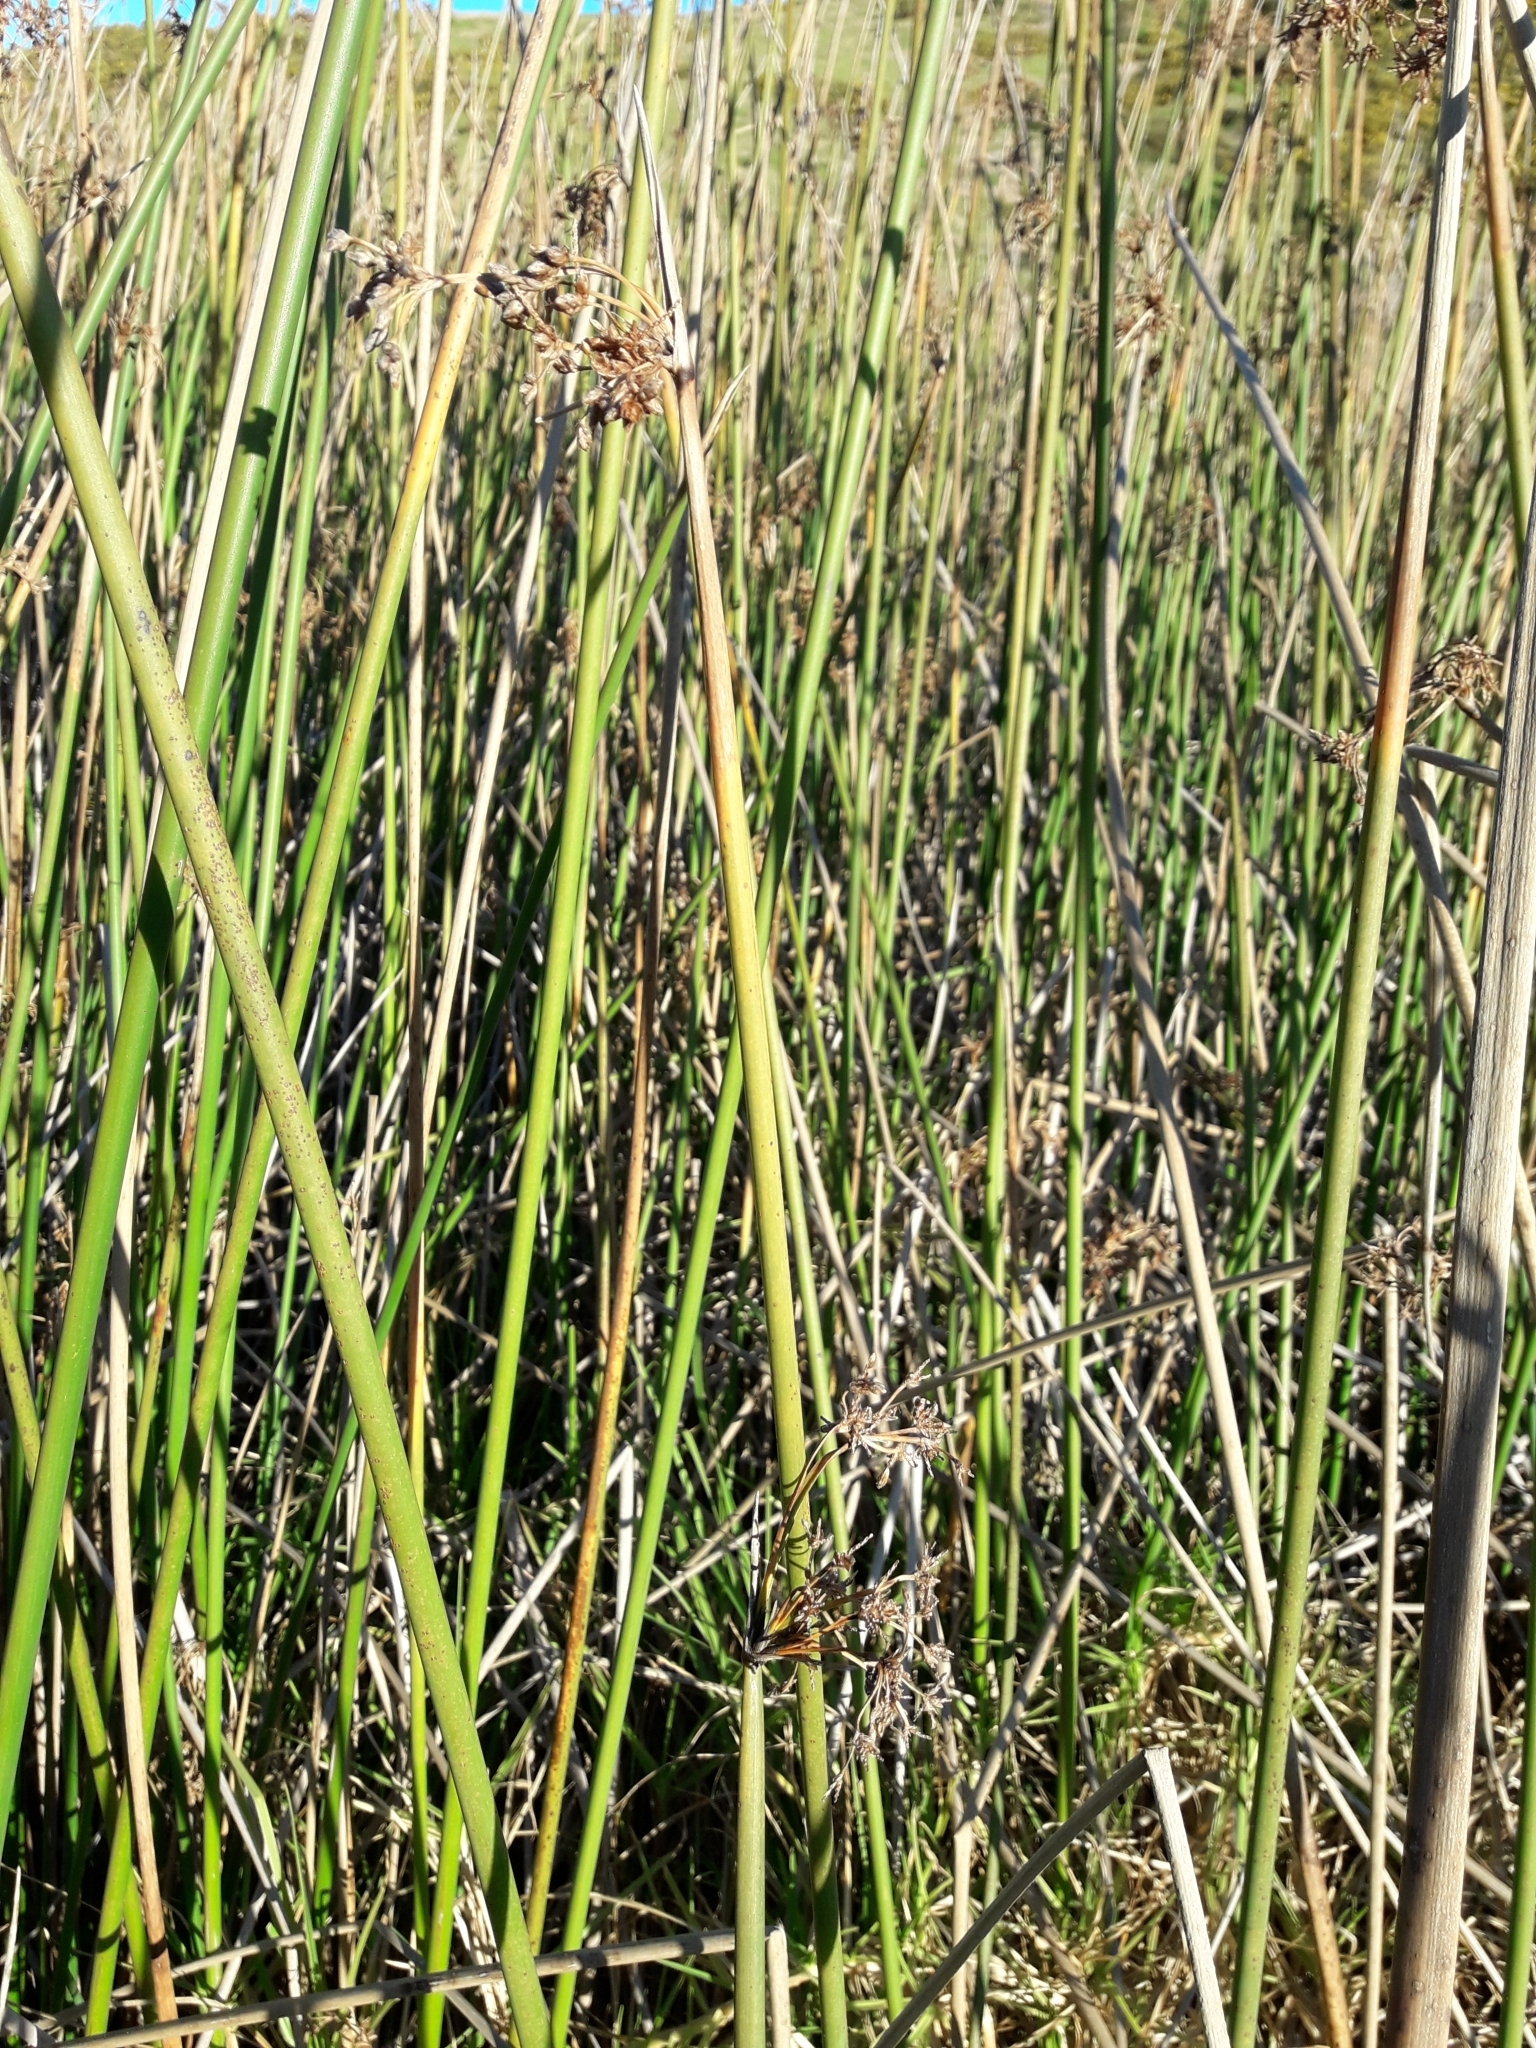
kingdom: Plantae
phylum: Tracheophyta
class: Liliopsida
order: Poales
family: Cyperaceae
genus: Schoenoplectus
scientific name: Schoenoplectus tabernaemontani
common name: Grey club-rush
